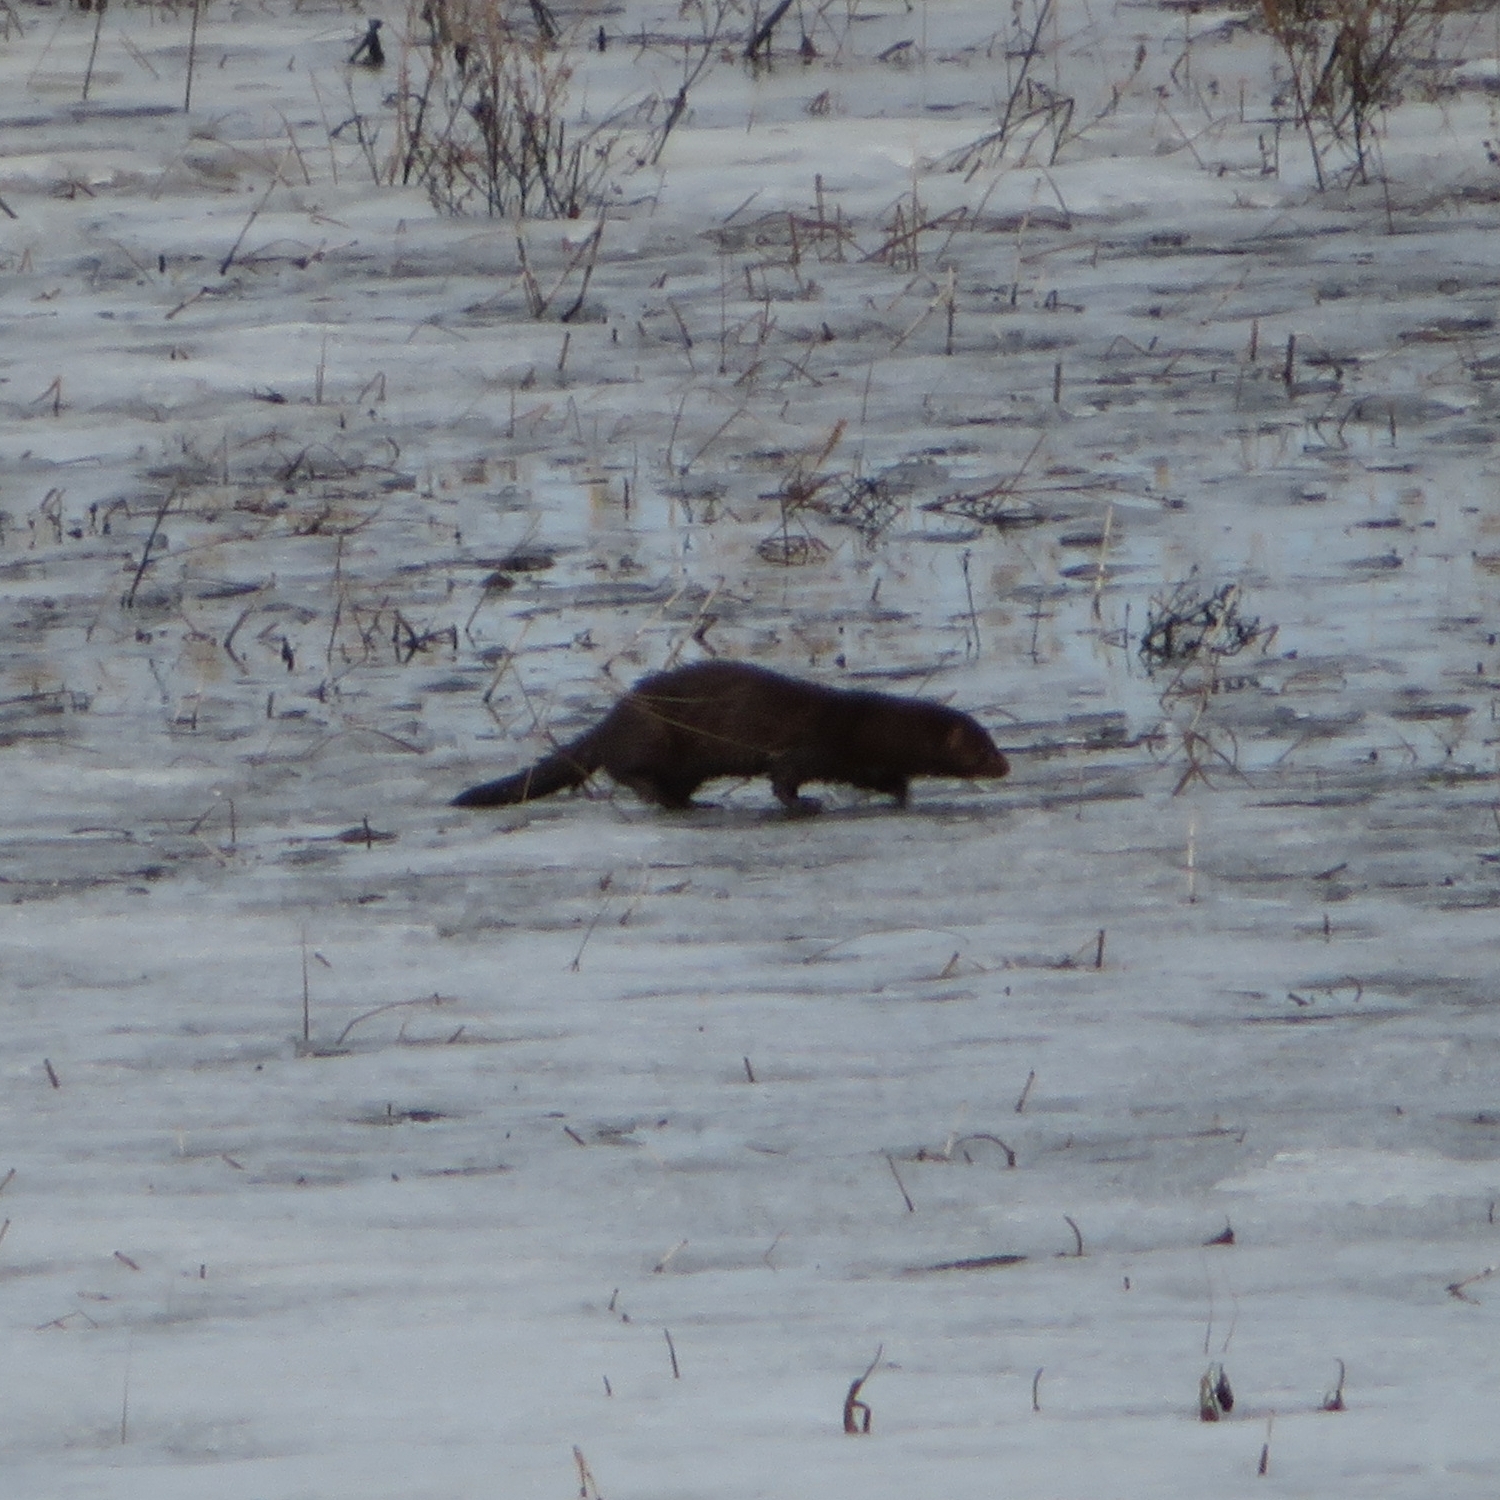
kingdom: Animalia
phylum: Chordata
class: Mammalia
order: Carnivora
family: Mustelidae
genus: Mustela
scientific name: Mustela
